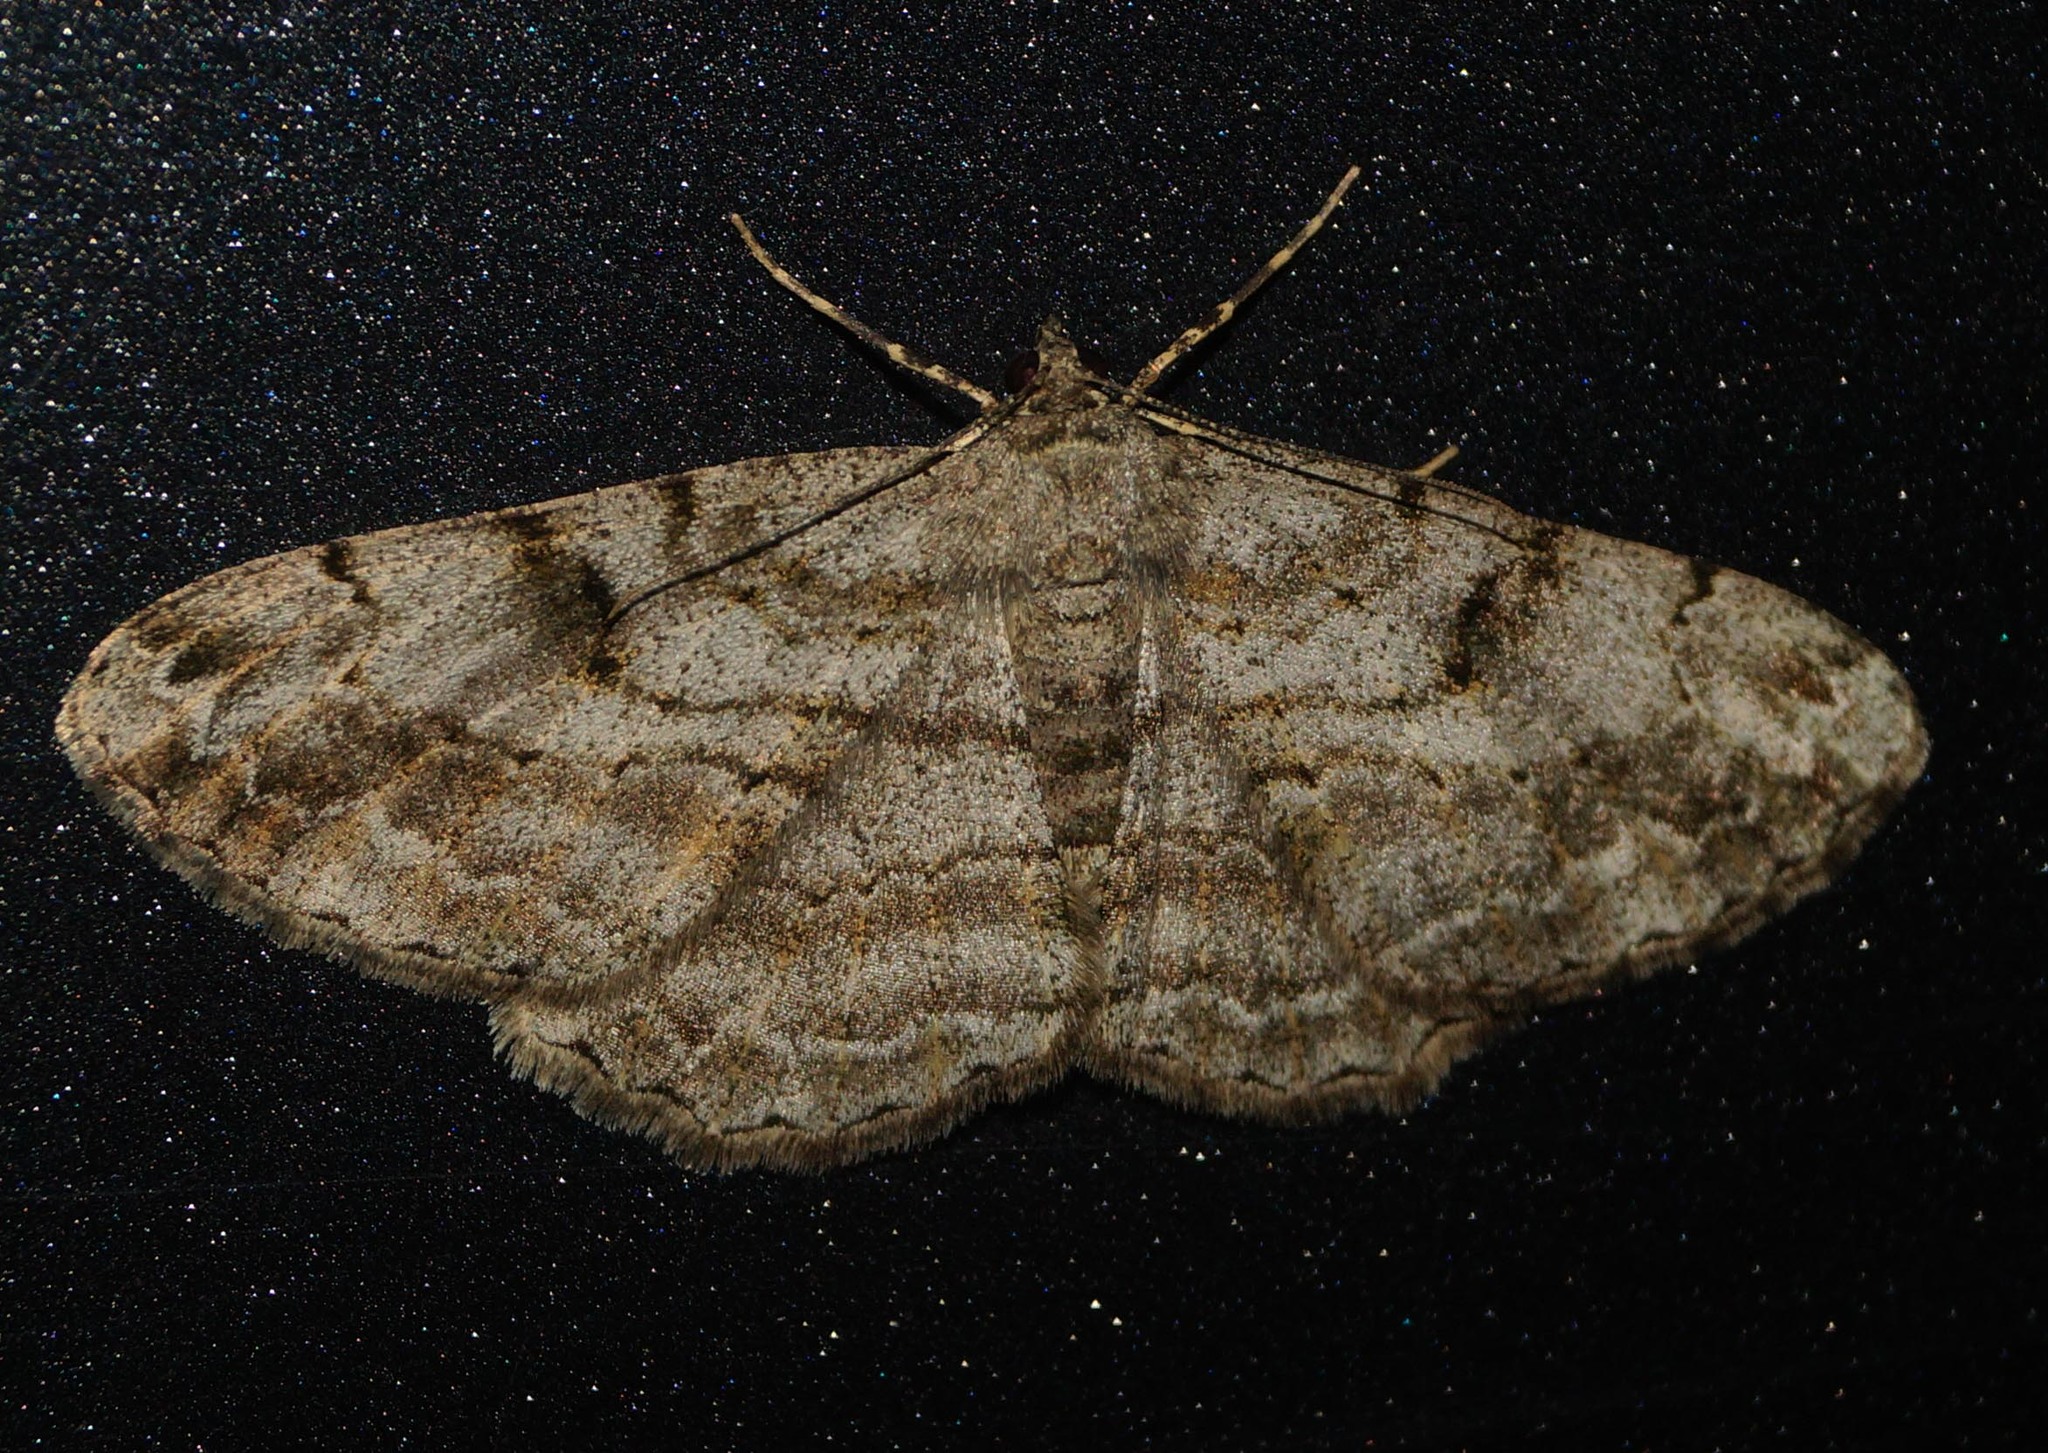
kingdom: Animalia
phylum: Arthropoda
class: Insecta
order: Lepidoptera
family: Geometridae
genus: Peribatodes
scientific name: Peribatodes rhomboidaria
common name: Willow beauty
